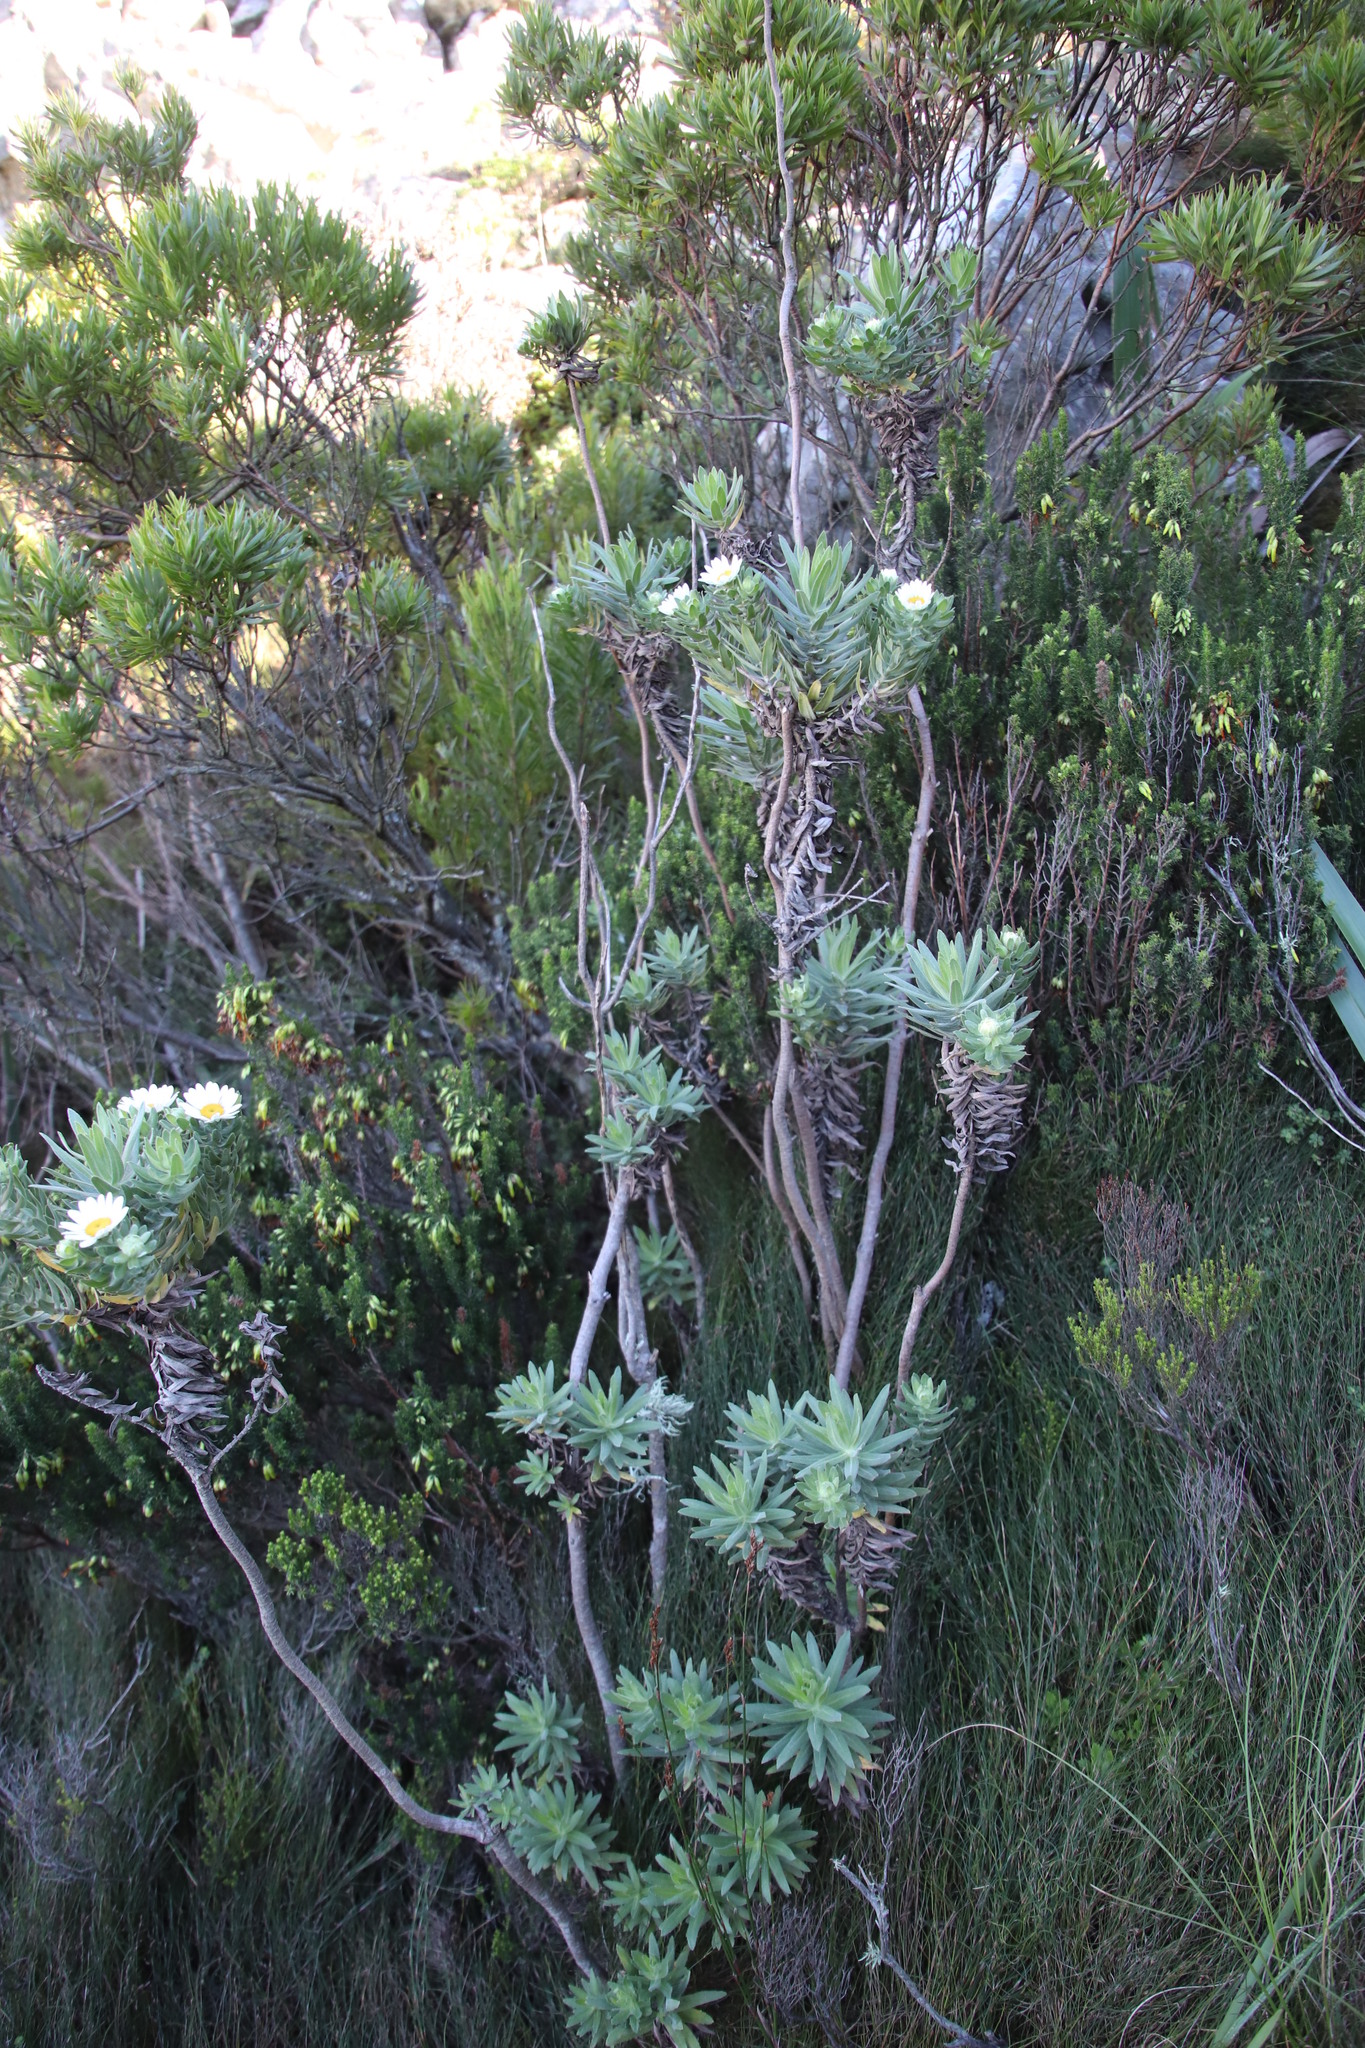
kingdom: Plantae
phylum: Tracheophyta
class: Magnoliopsida
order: Asterales
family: Asteraceae
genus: Osmitopsis
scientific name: Osmitopsis asteriscoides
